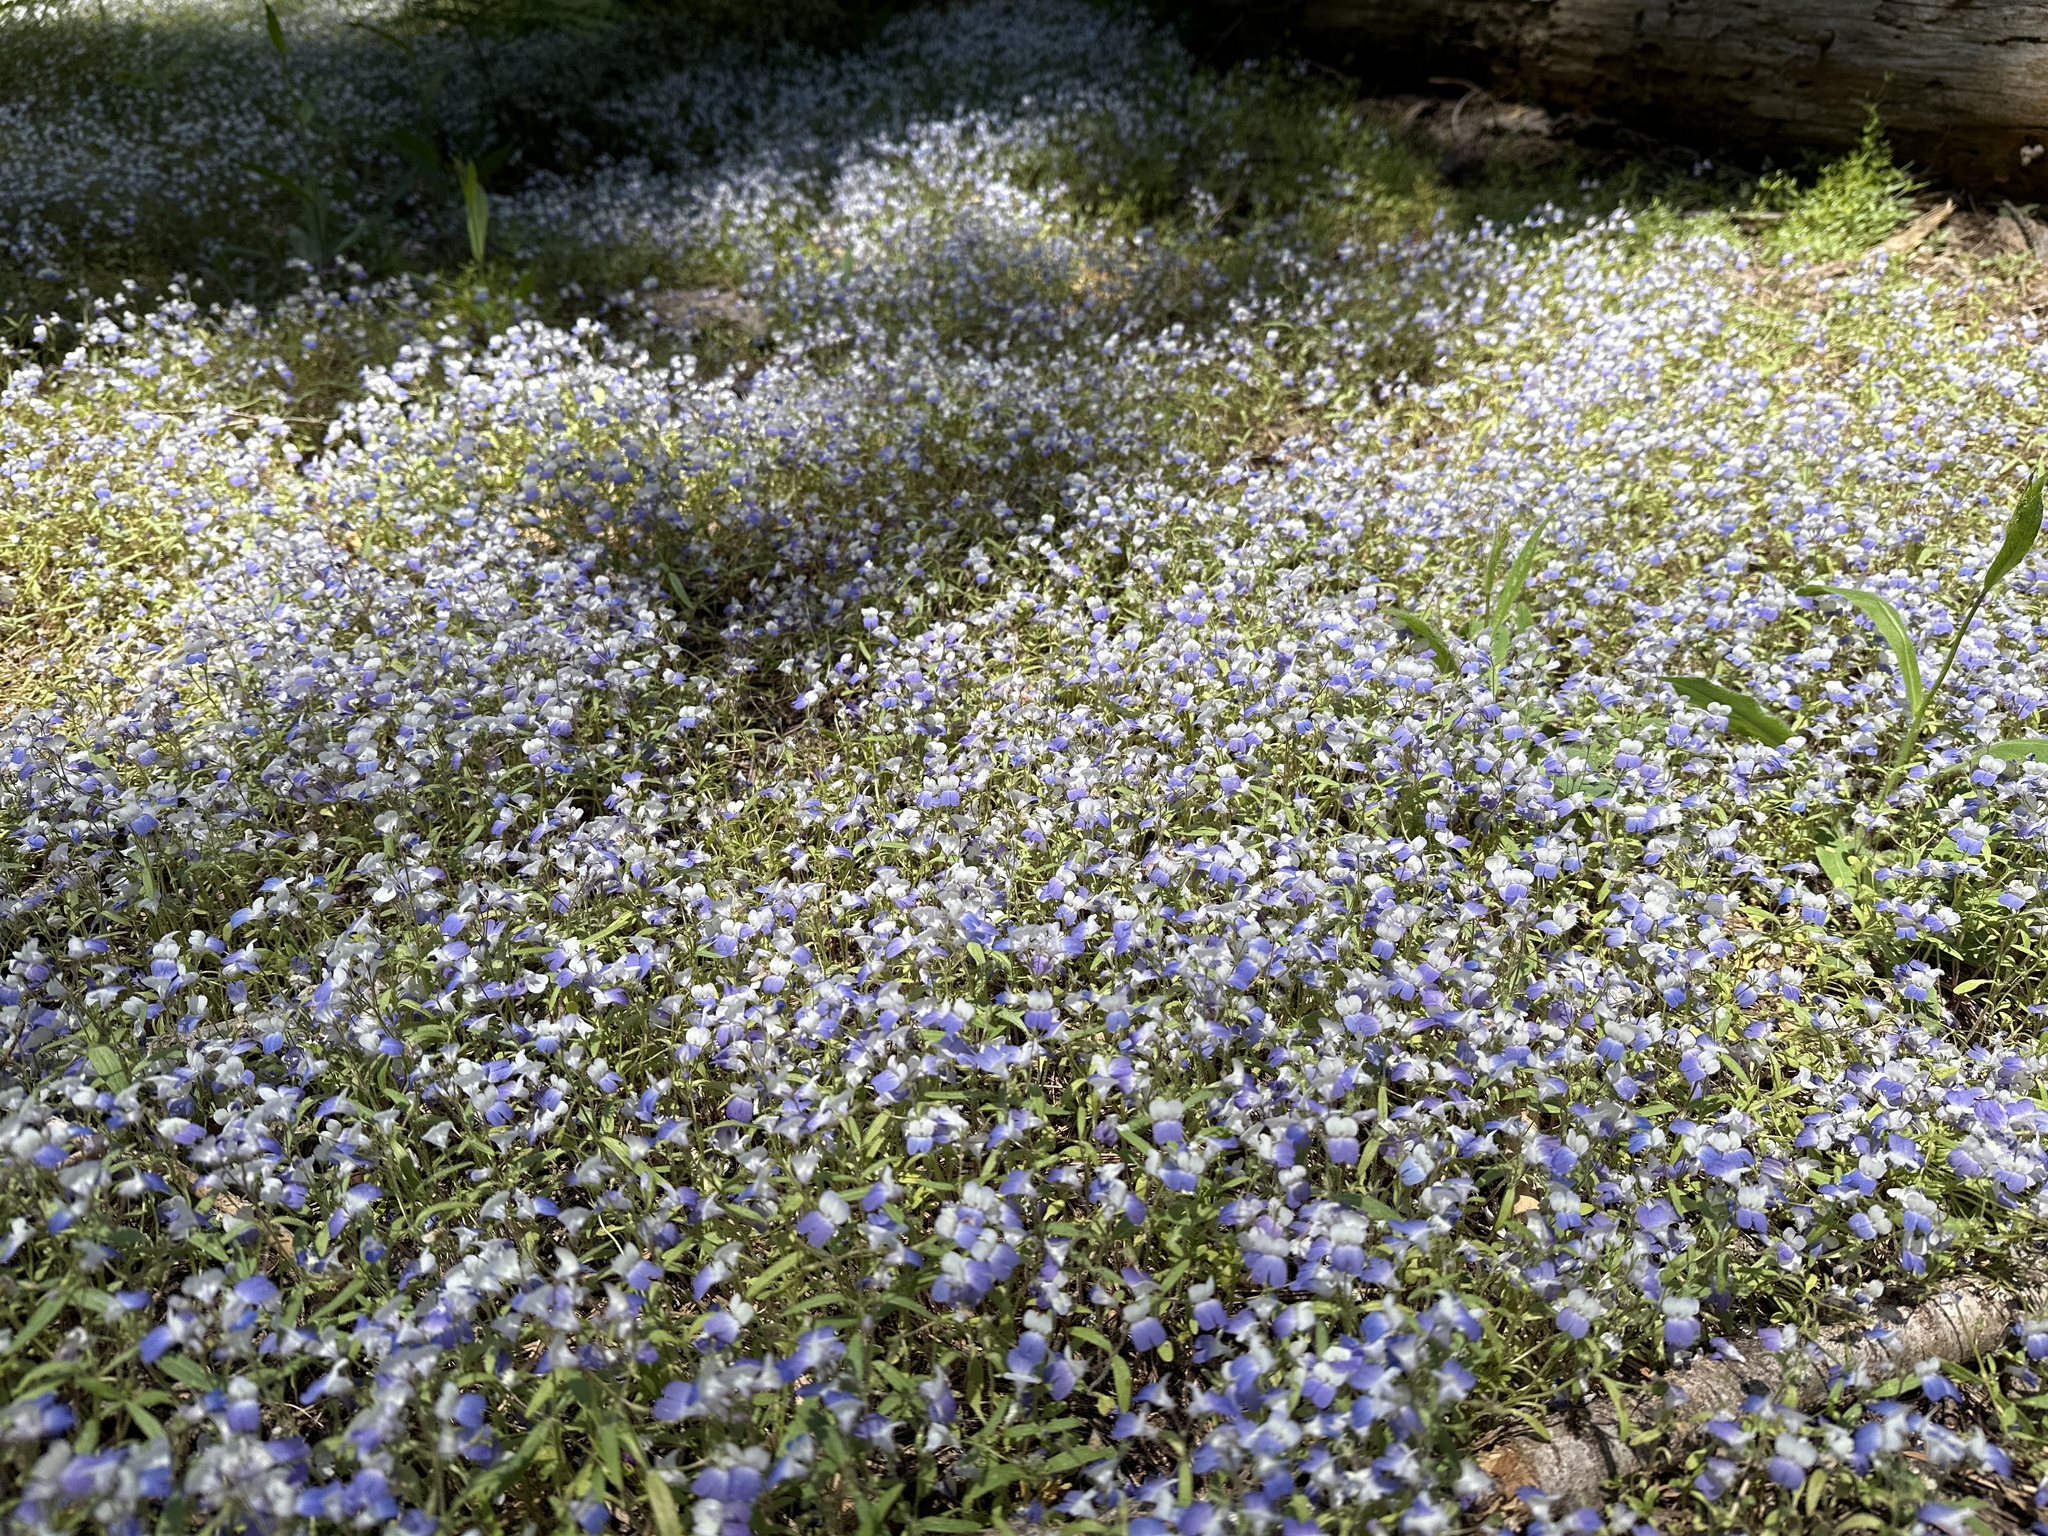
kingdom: Plantae
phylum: Tracheophyta
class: Magnoliopsida
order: Lamiales
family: Plantaginaceae
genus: Collinsia
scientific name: Collinsia torreyi
